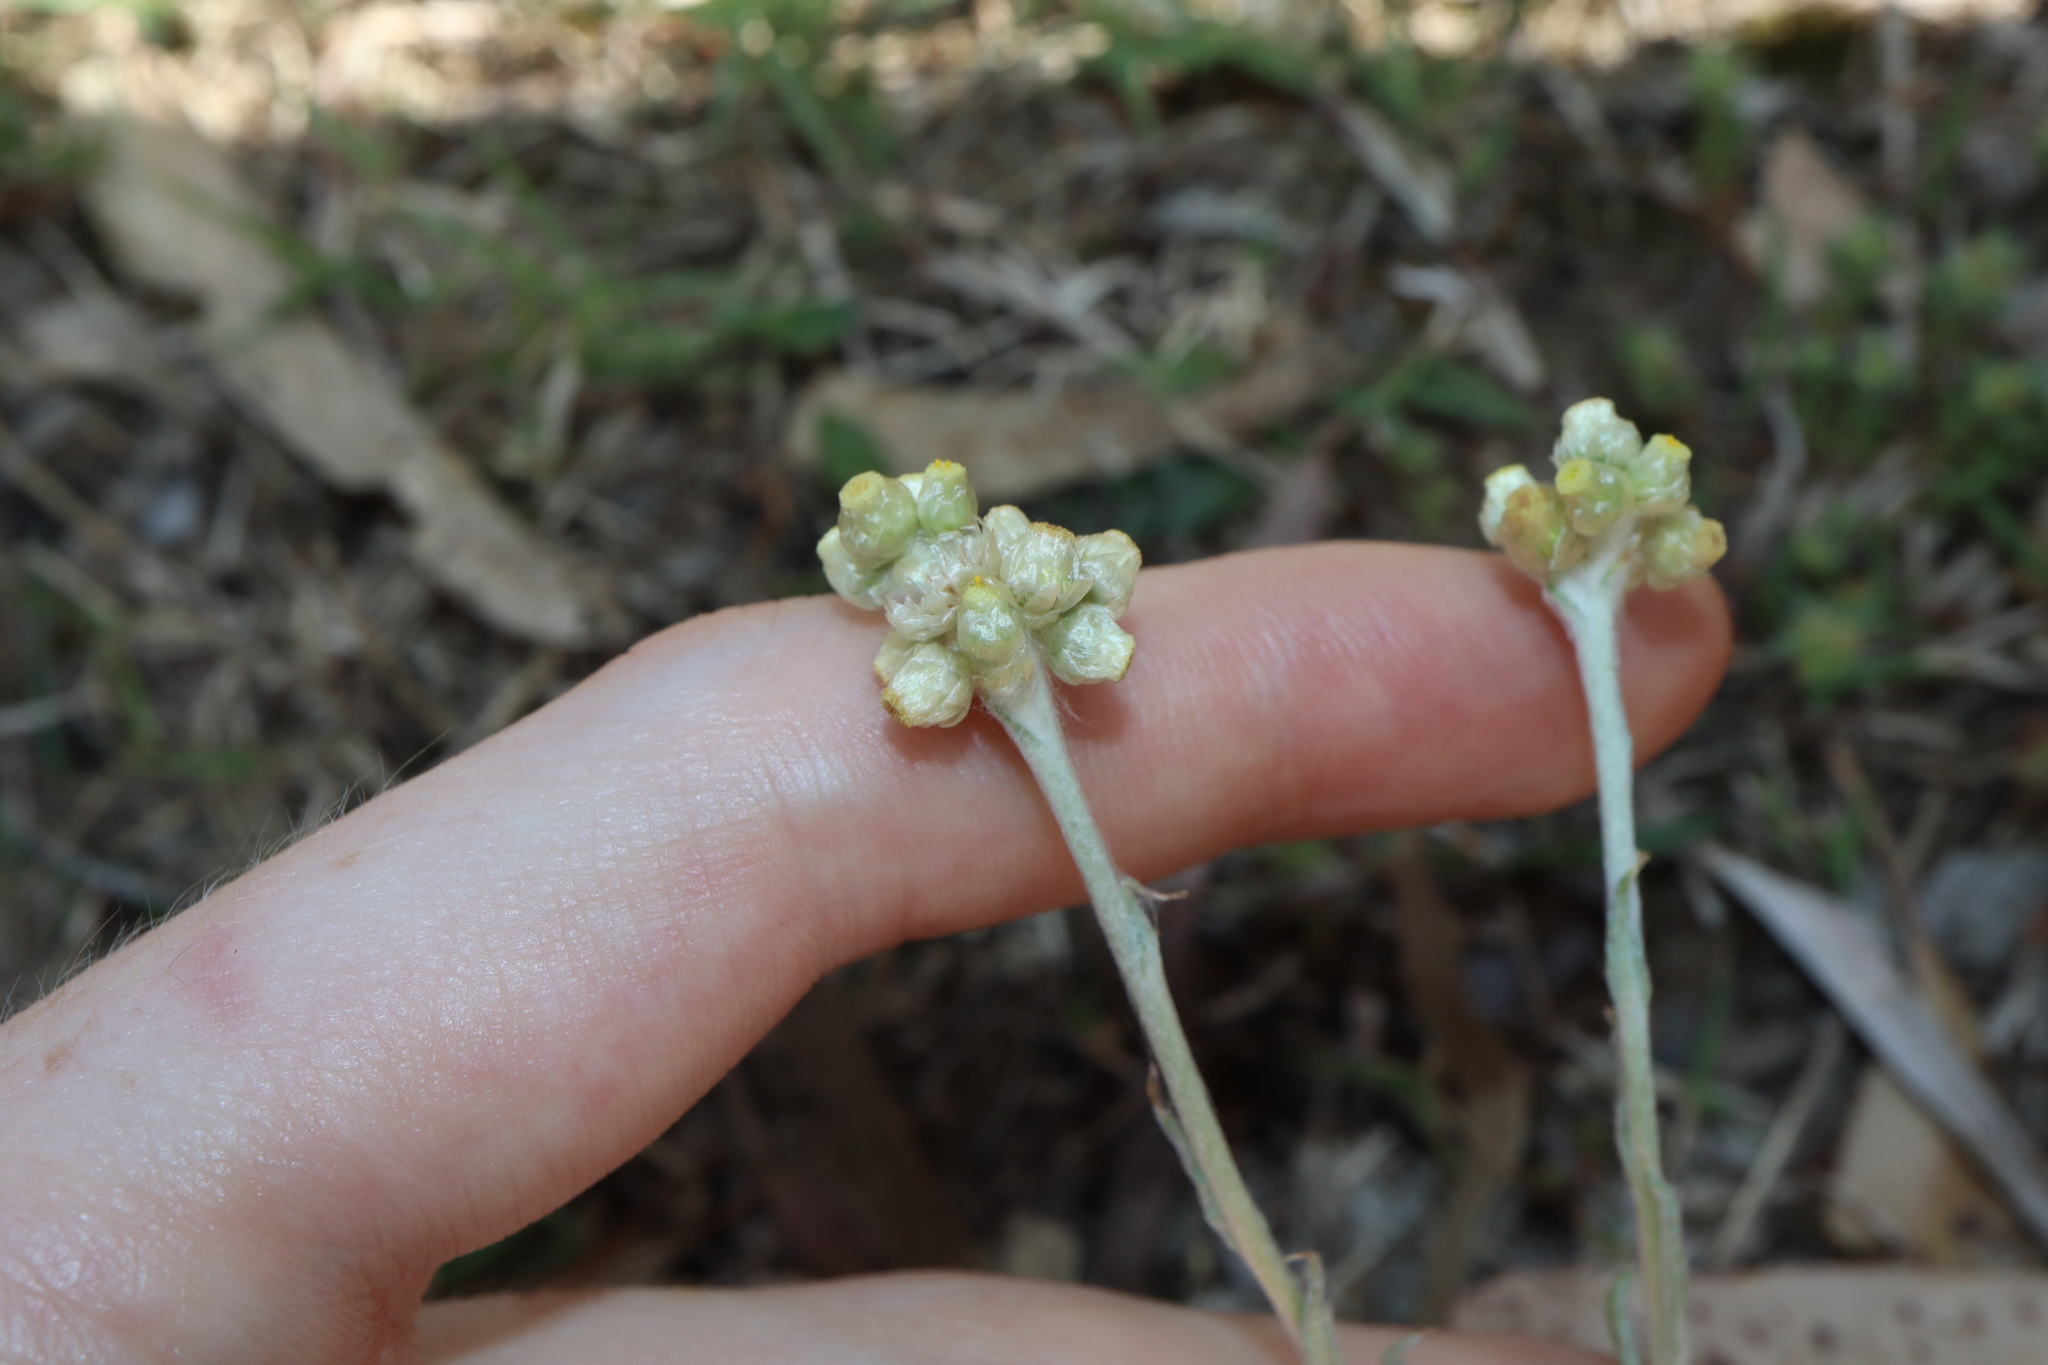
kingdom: Plantae
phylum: Tracheophyta
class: Magnoliopsida
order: Asterales
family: Asteraceae
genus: Helichrysum
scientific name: Helichrysum luteoalbum
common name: Daisy
